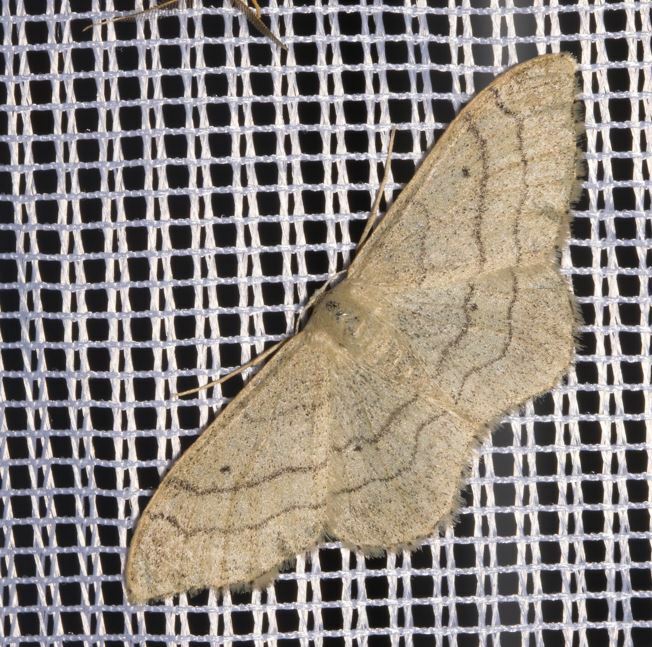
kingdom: Animalia
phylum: Arthropoda
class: Insecta
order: Lepidoptera
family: Geometridae
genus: Idaea
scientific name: Idaea aversata
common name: Riband wave
